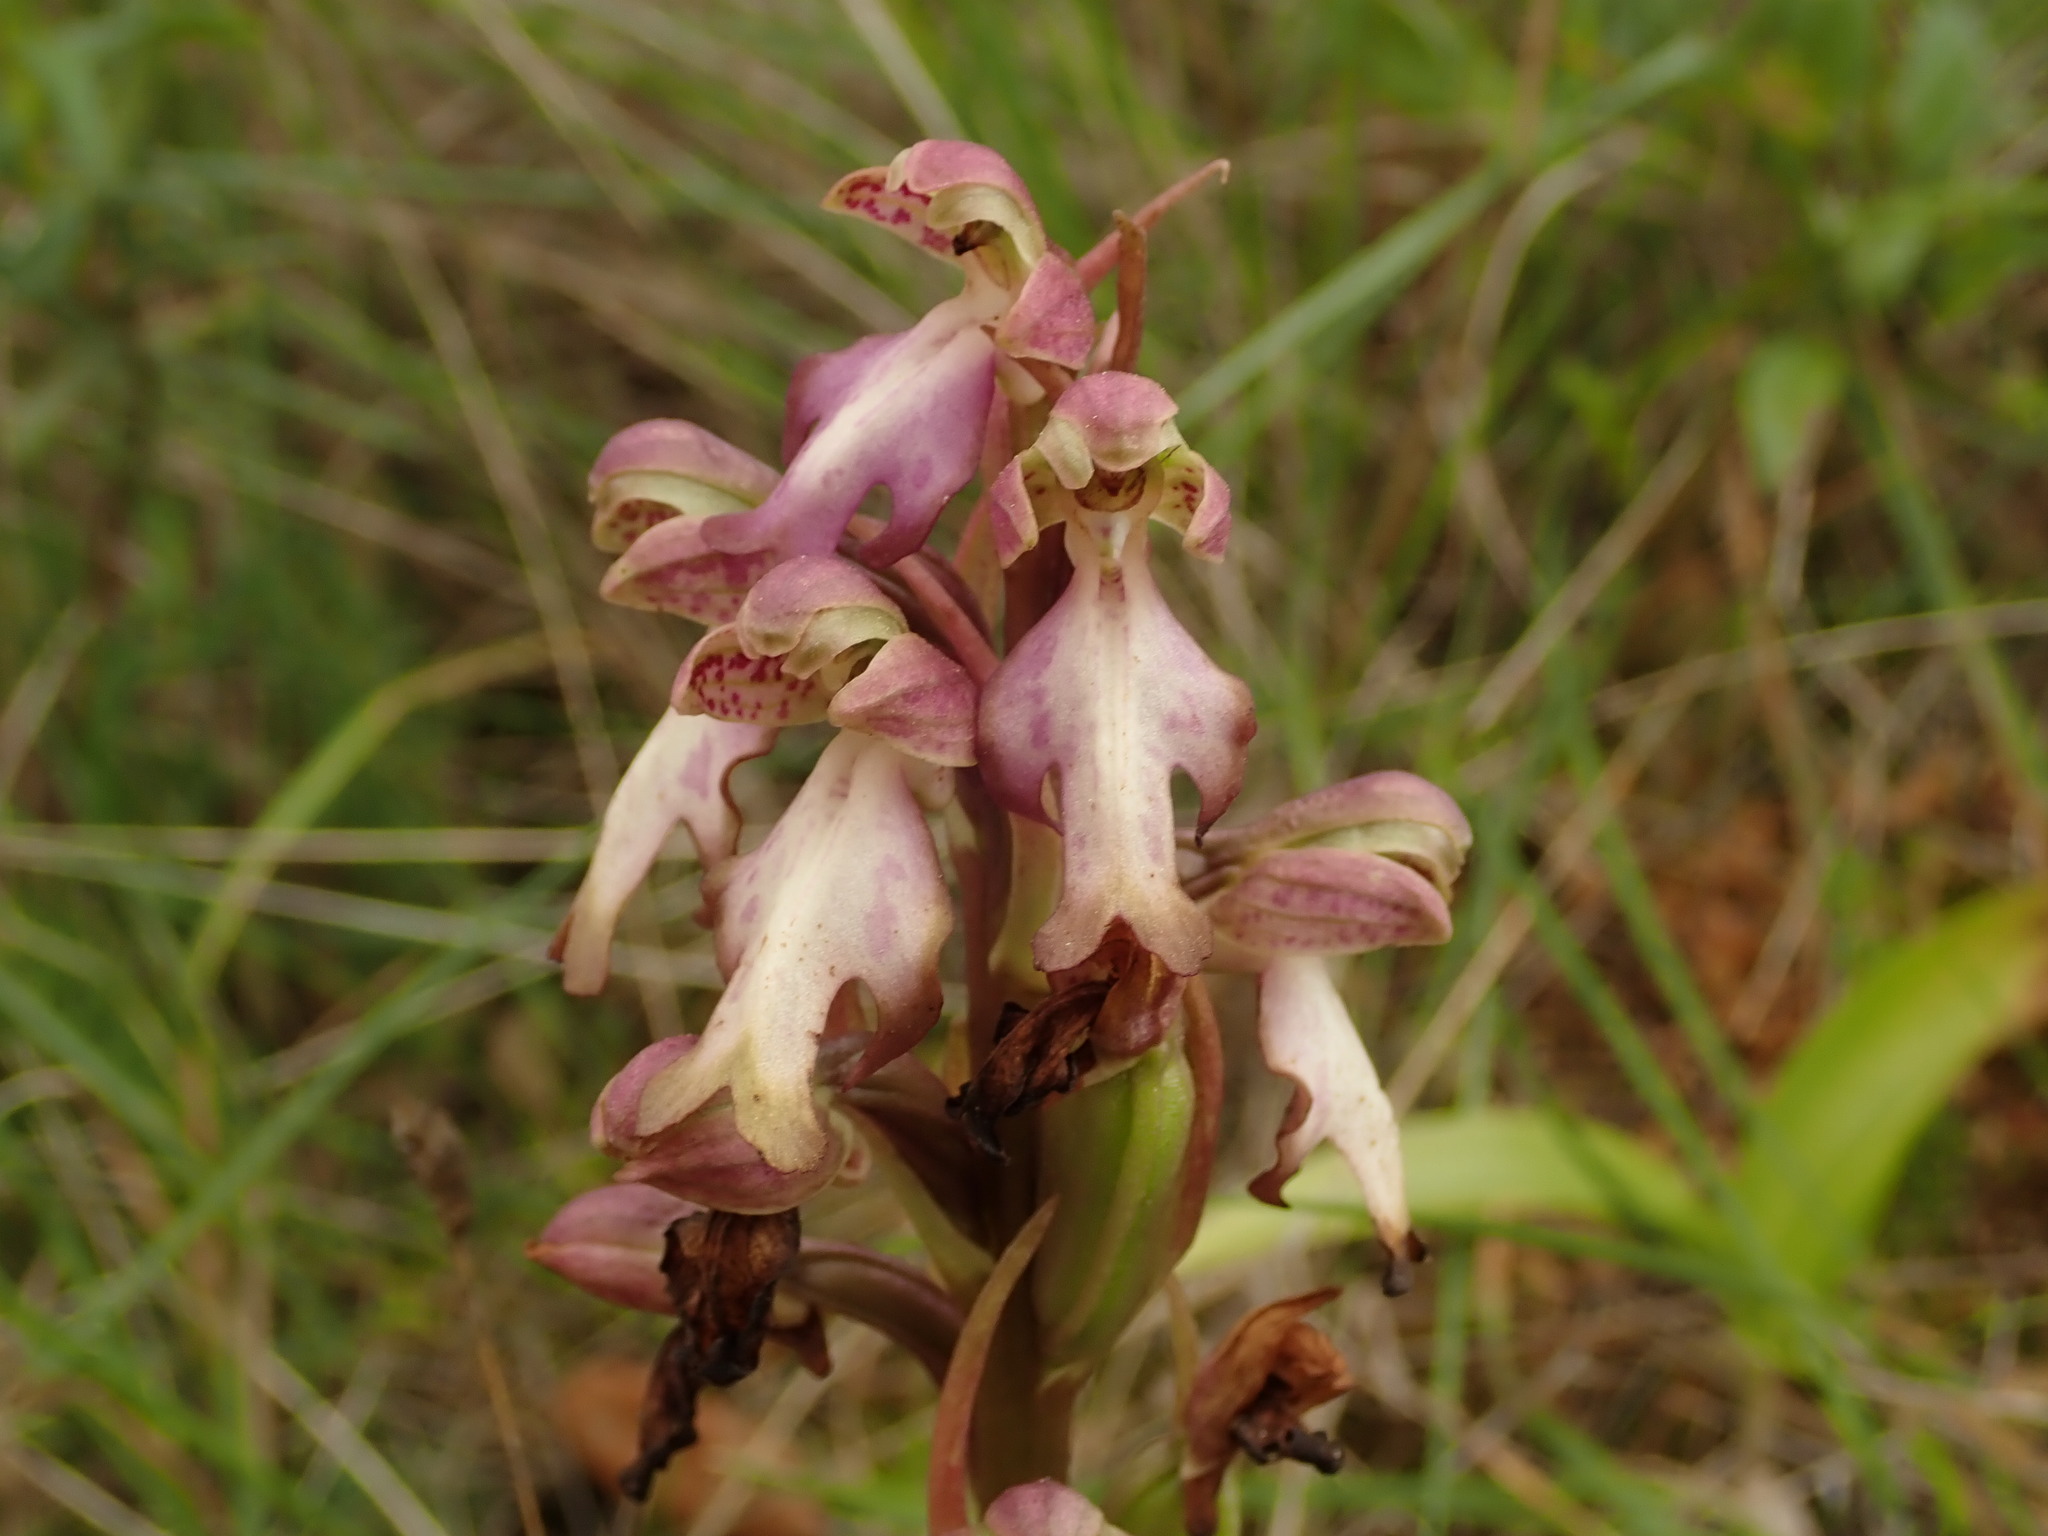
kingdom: Plantae
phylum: Tracheophyta
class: Liliopsida
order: Asparagales
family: Orchidaceae
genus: Himantoglossum
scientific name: Himantoglossum robertianum
